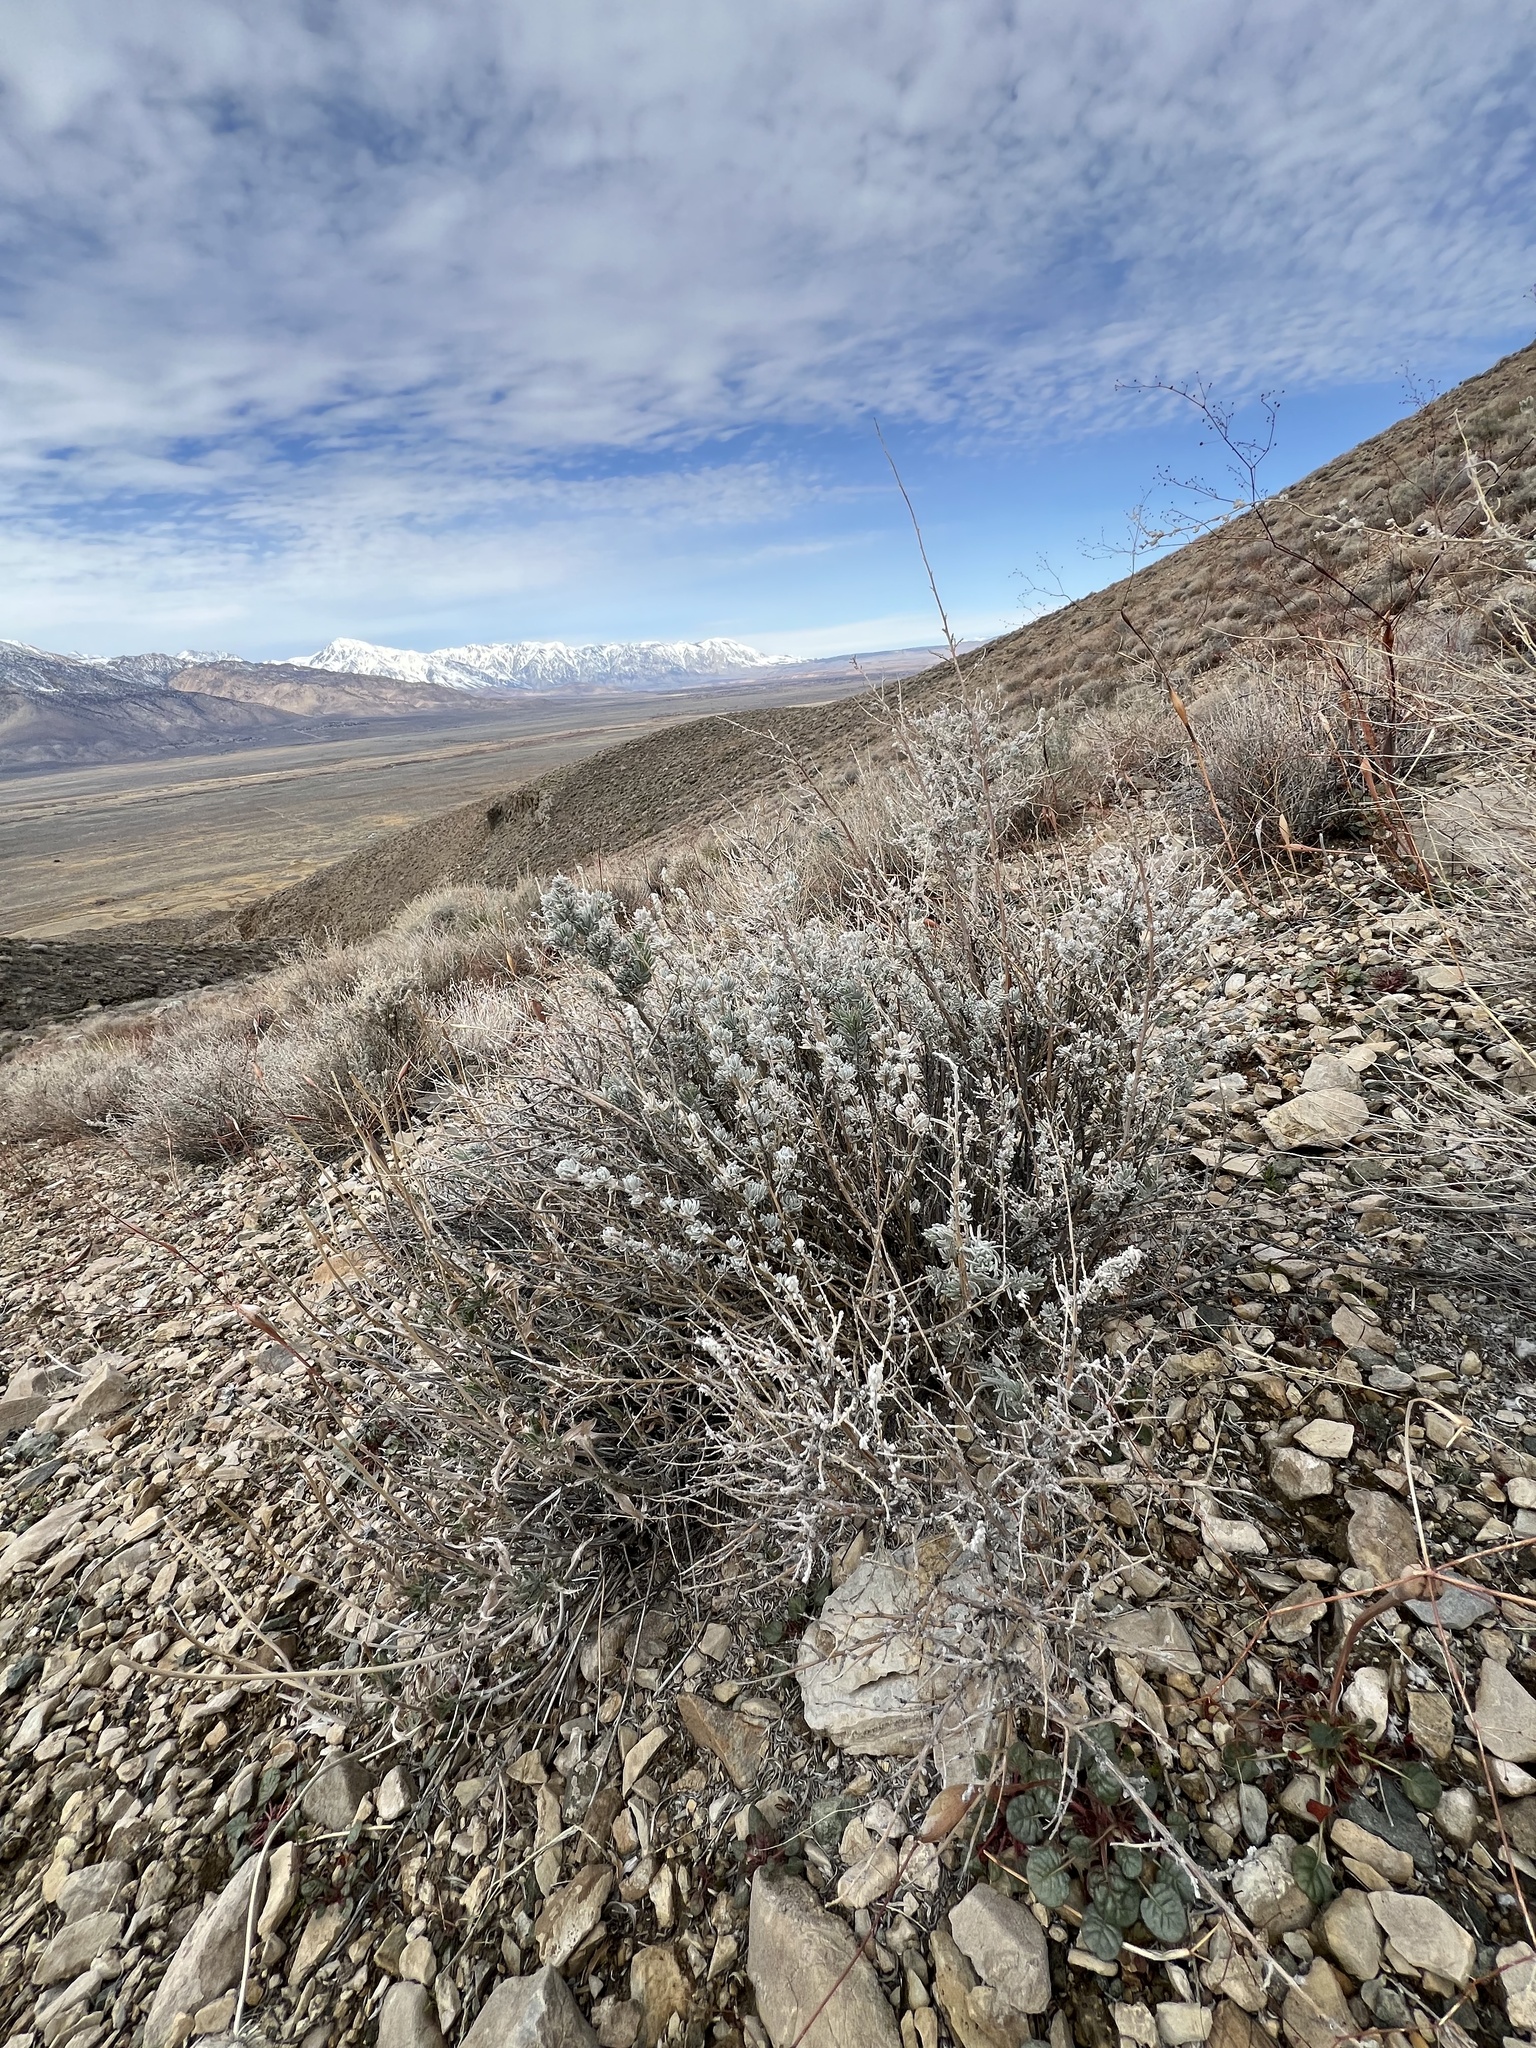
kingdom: Plantae
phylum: Tracheophyta
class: Magnoliopsida
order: Caryophyllales
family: Amaranthaceae
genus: Krascheninnikovia
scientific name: Krascheninnikovia lanata
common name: Winterfat
